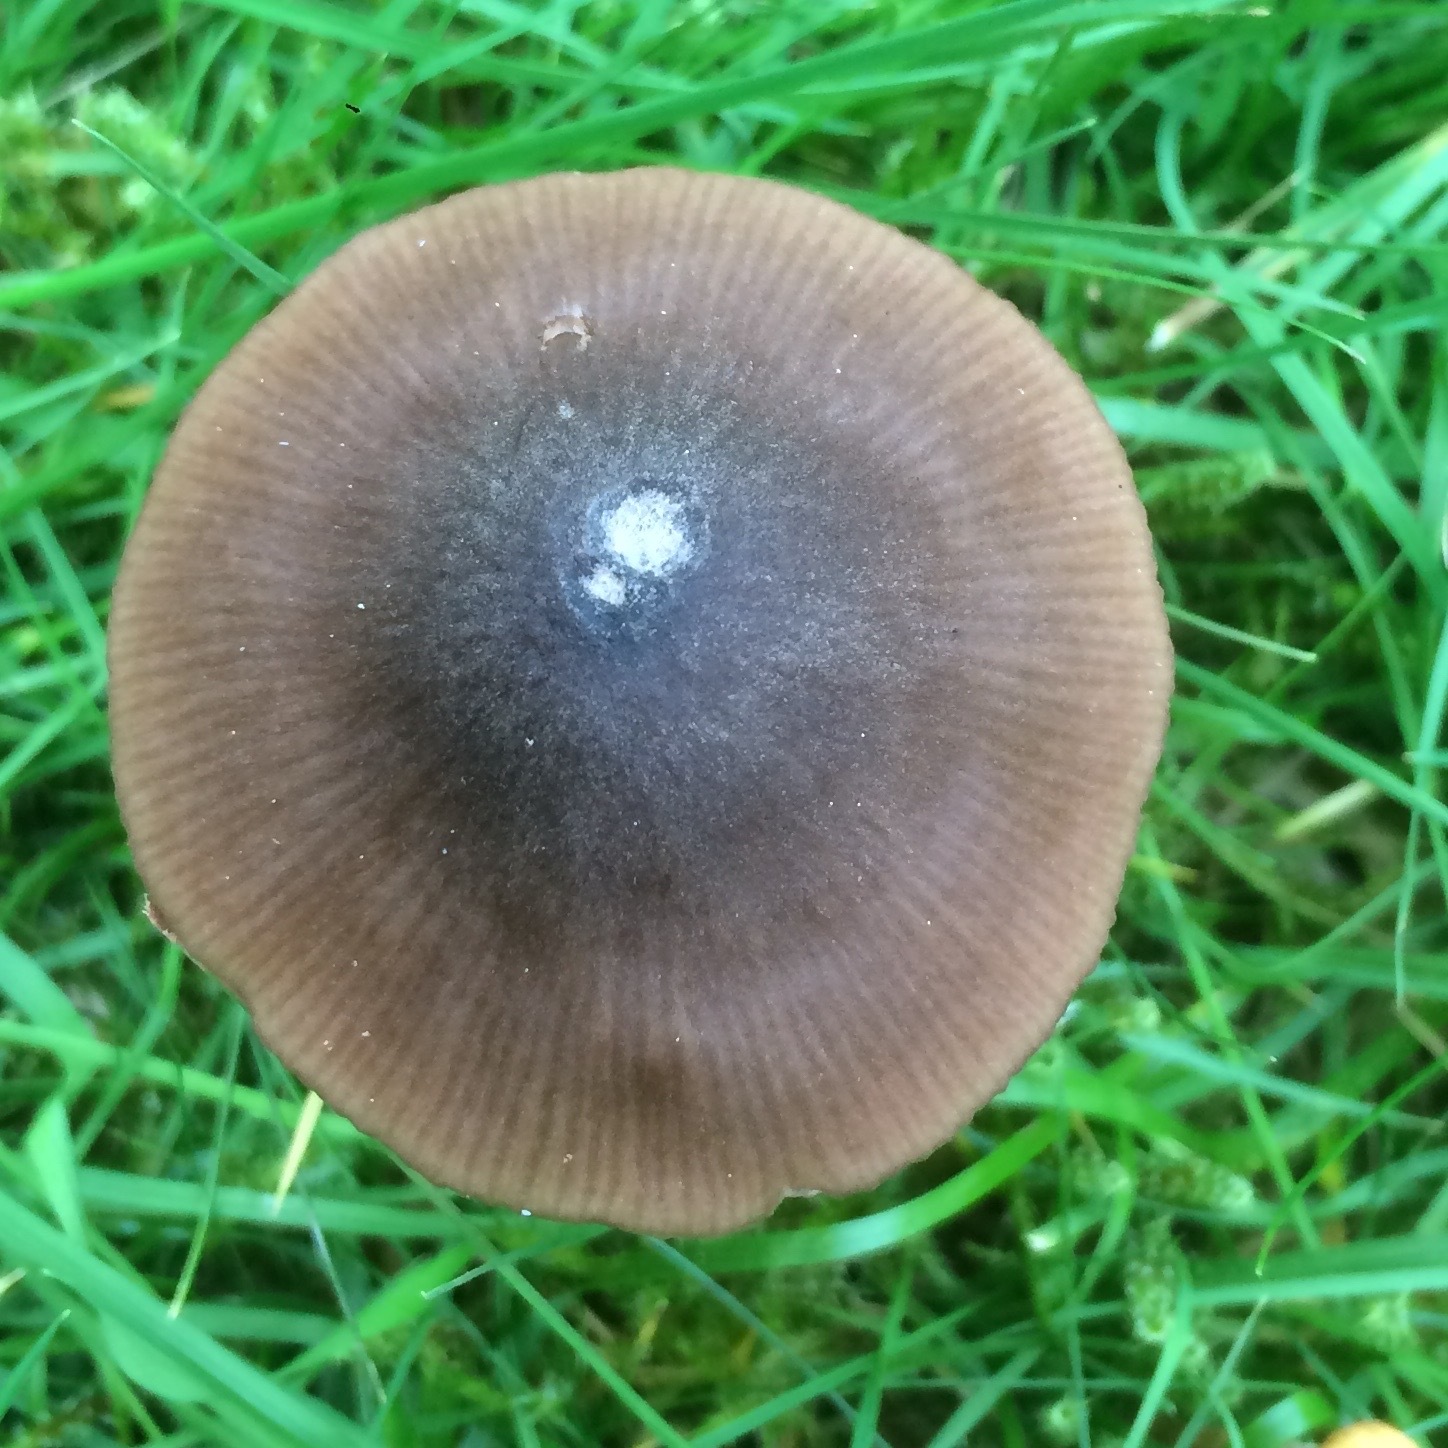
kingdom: Fungi
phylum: Basidiomycota
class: Agaricomycetes
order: Agaricales
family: Entolomataceae
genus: Entoloma
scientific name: Entoloma conferendum
